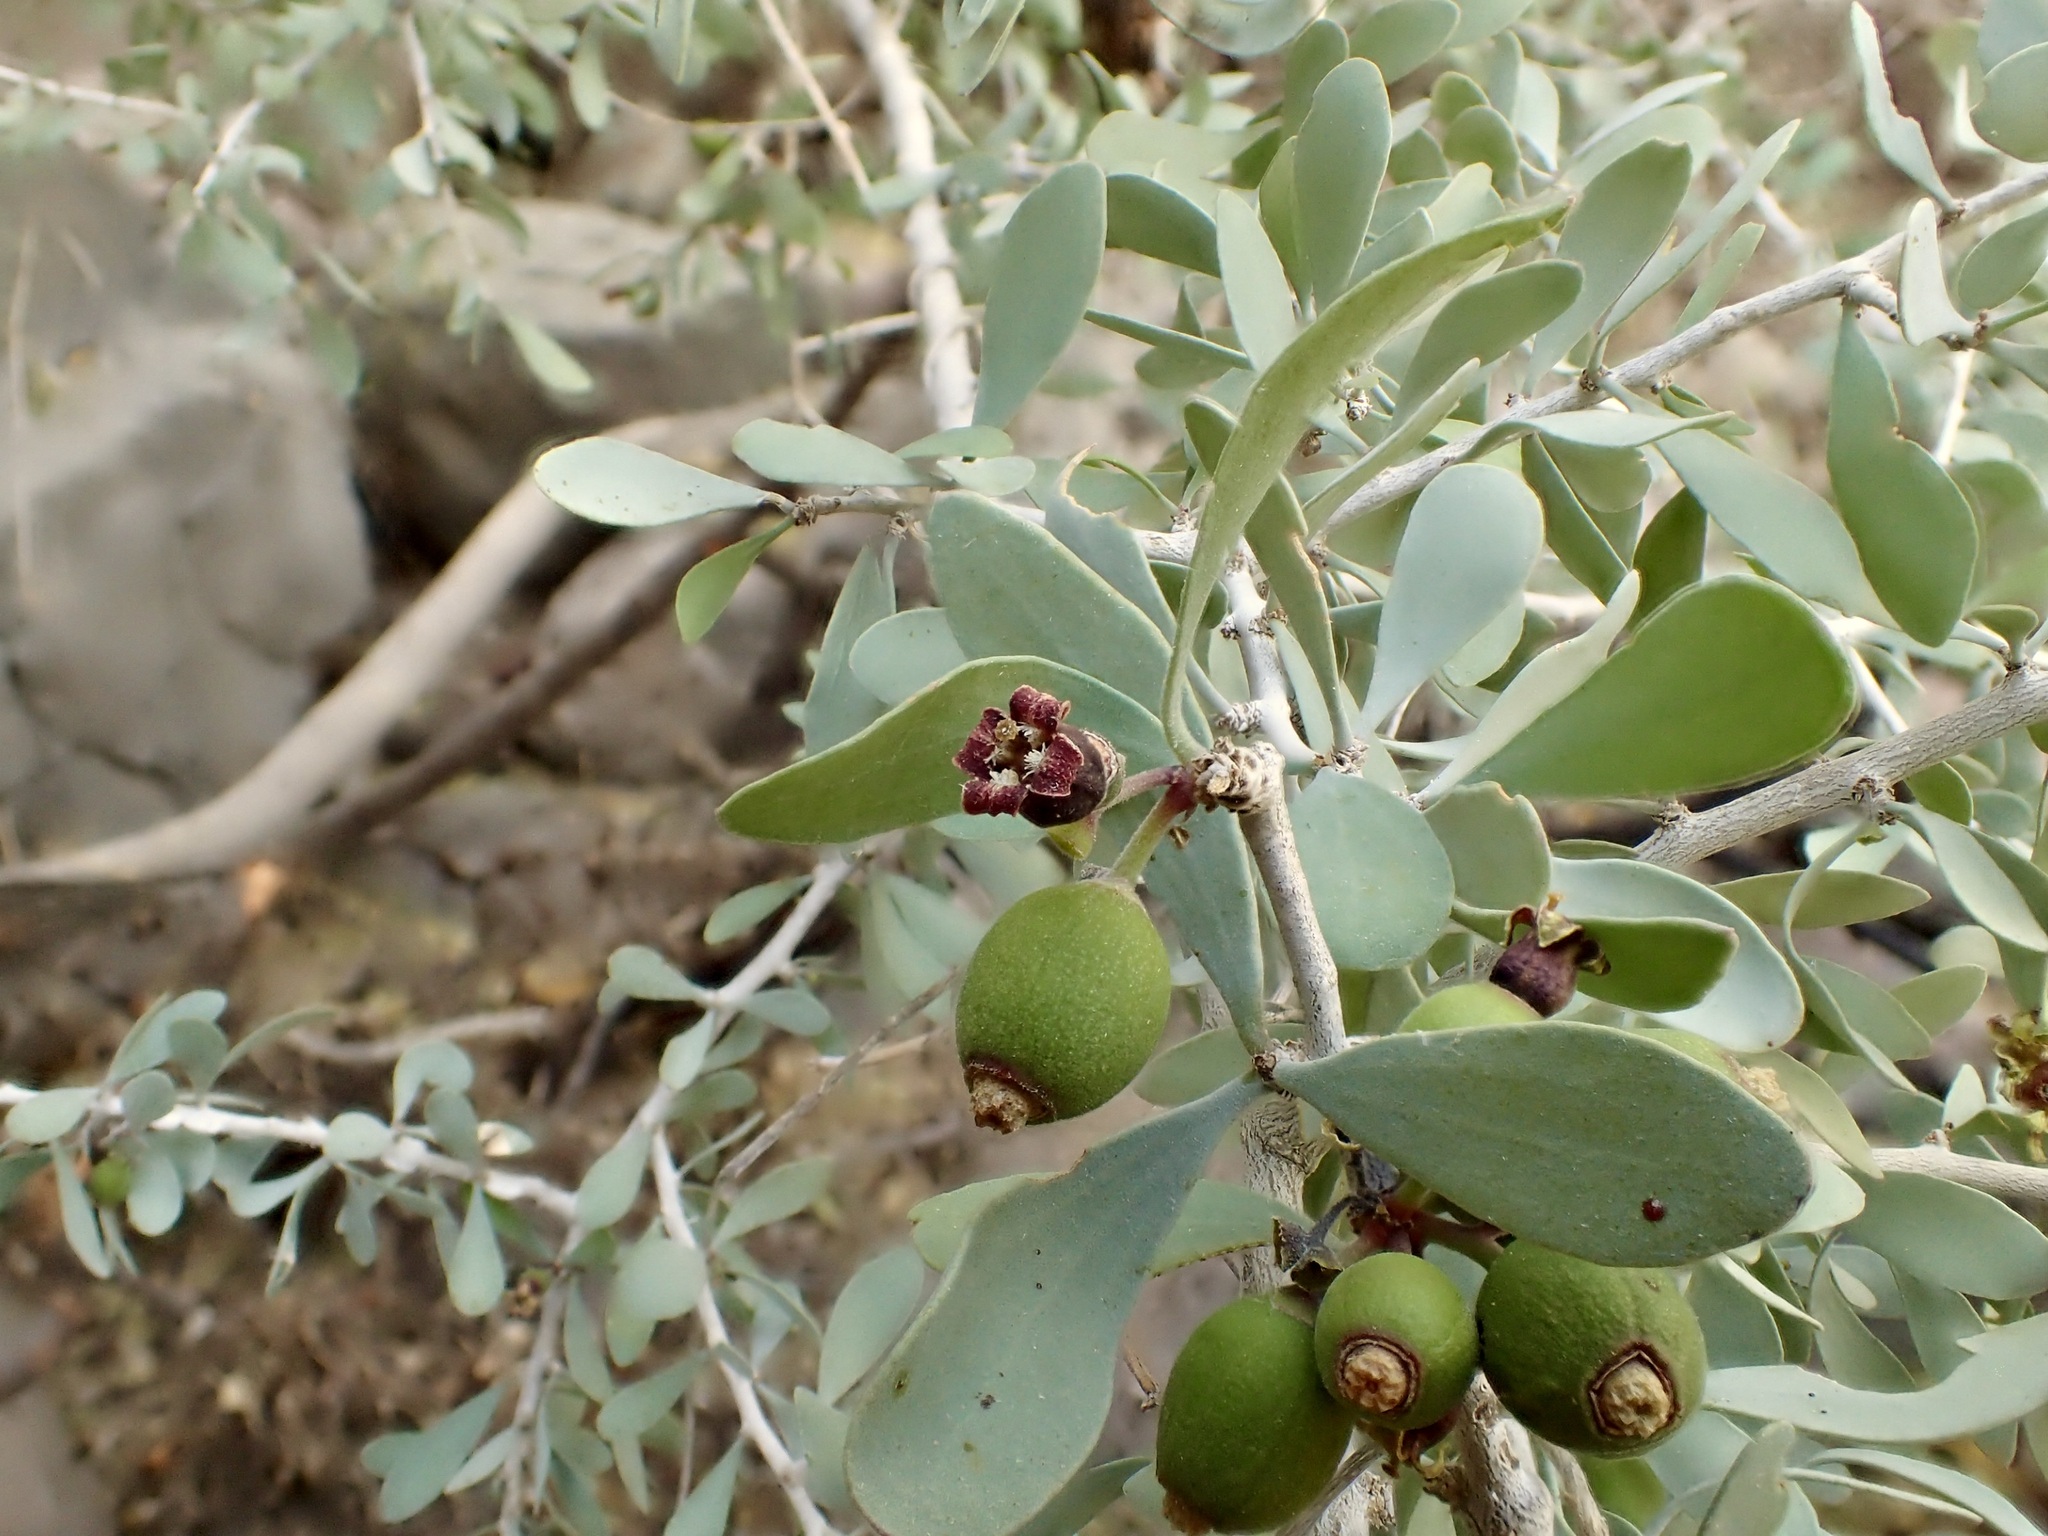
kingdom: Plantae
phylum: Tracheophyta
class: Magnoliopsida
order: Santalales
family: Schoepfiaceae
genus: Schoepfia
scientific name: Schoepfia californica
